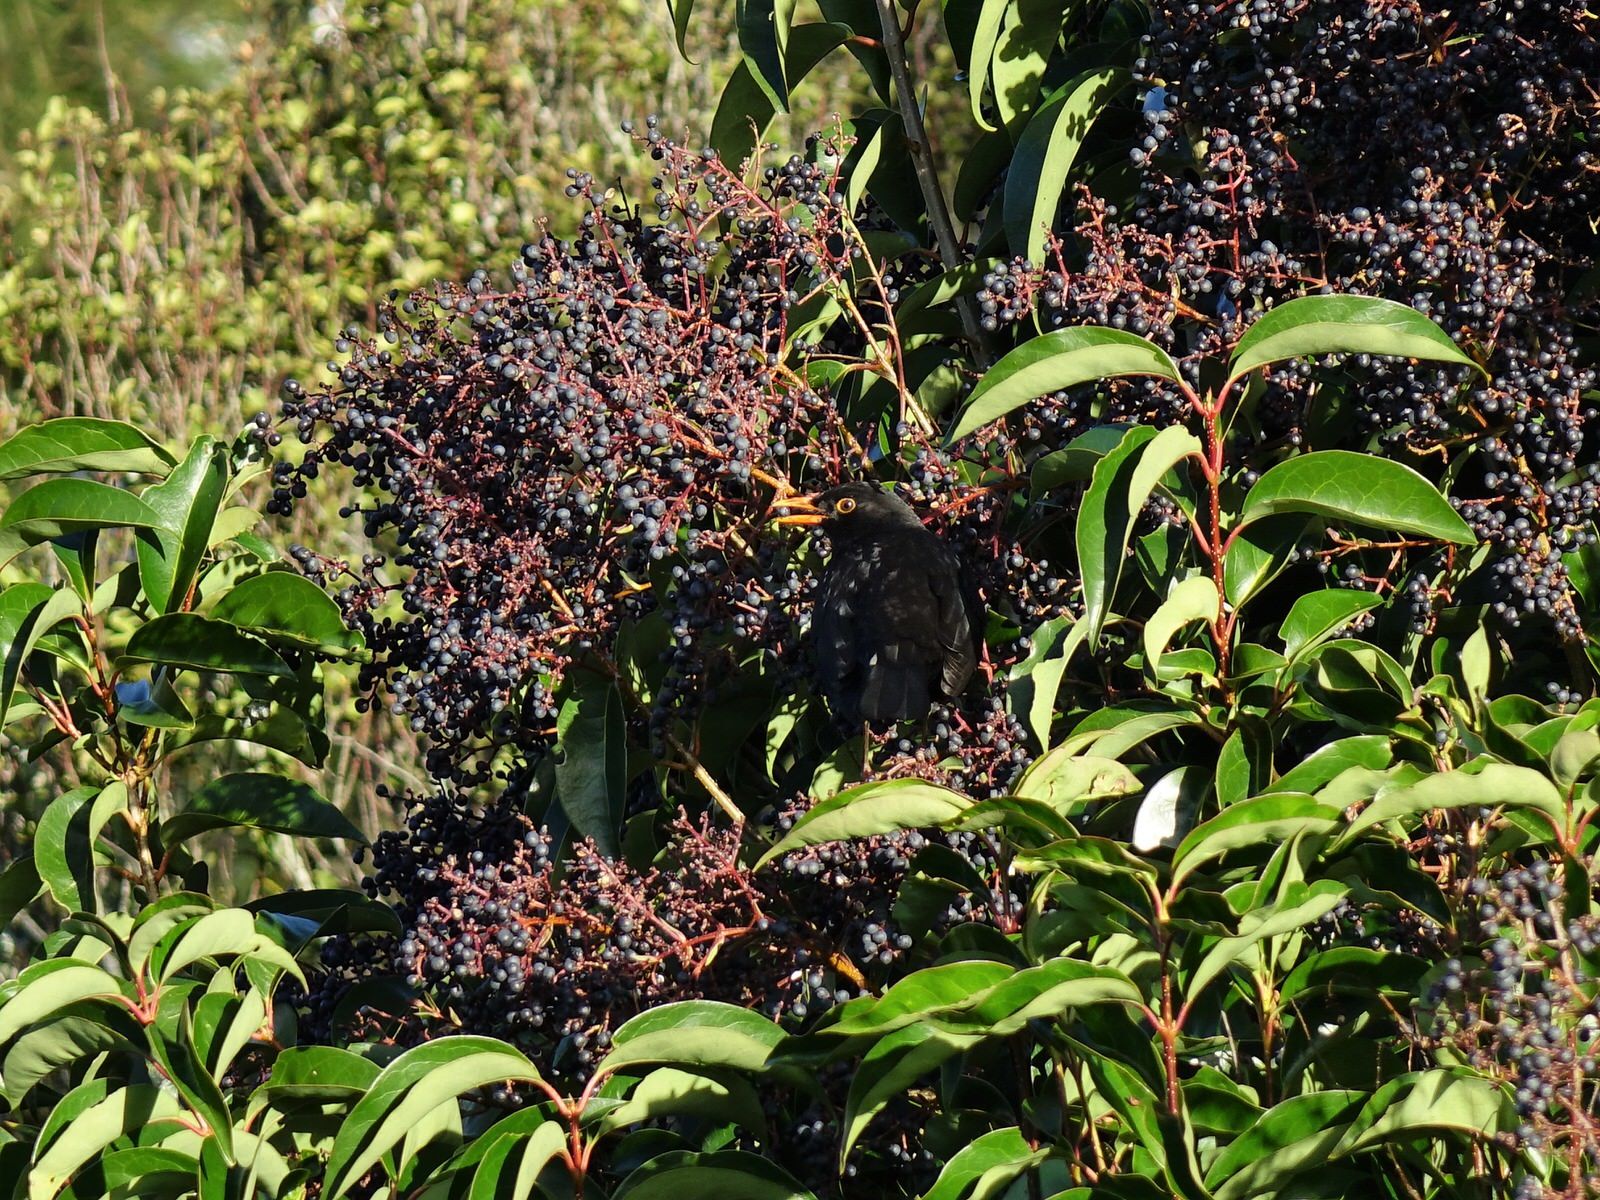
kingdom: Animalia
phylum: Chordata
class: Aves
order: Passeriformes
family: Turdidae
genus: Turdus
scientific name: Turdus merula
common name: Common blackbird
